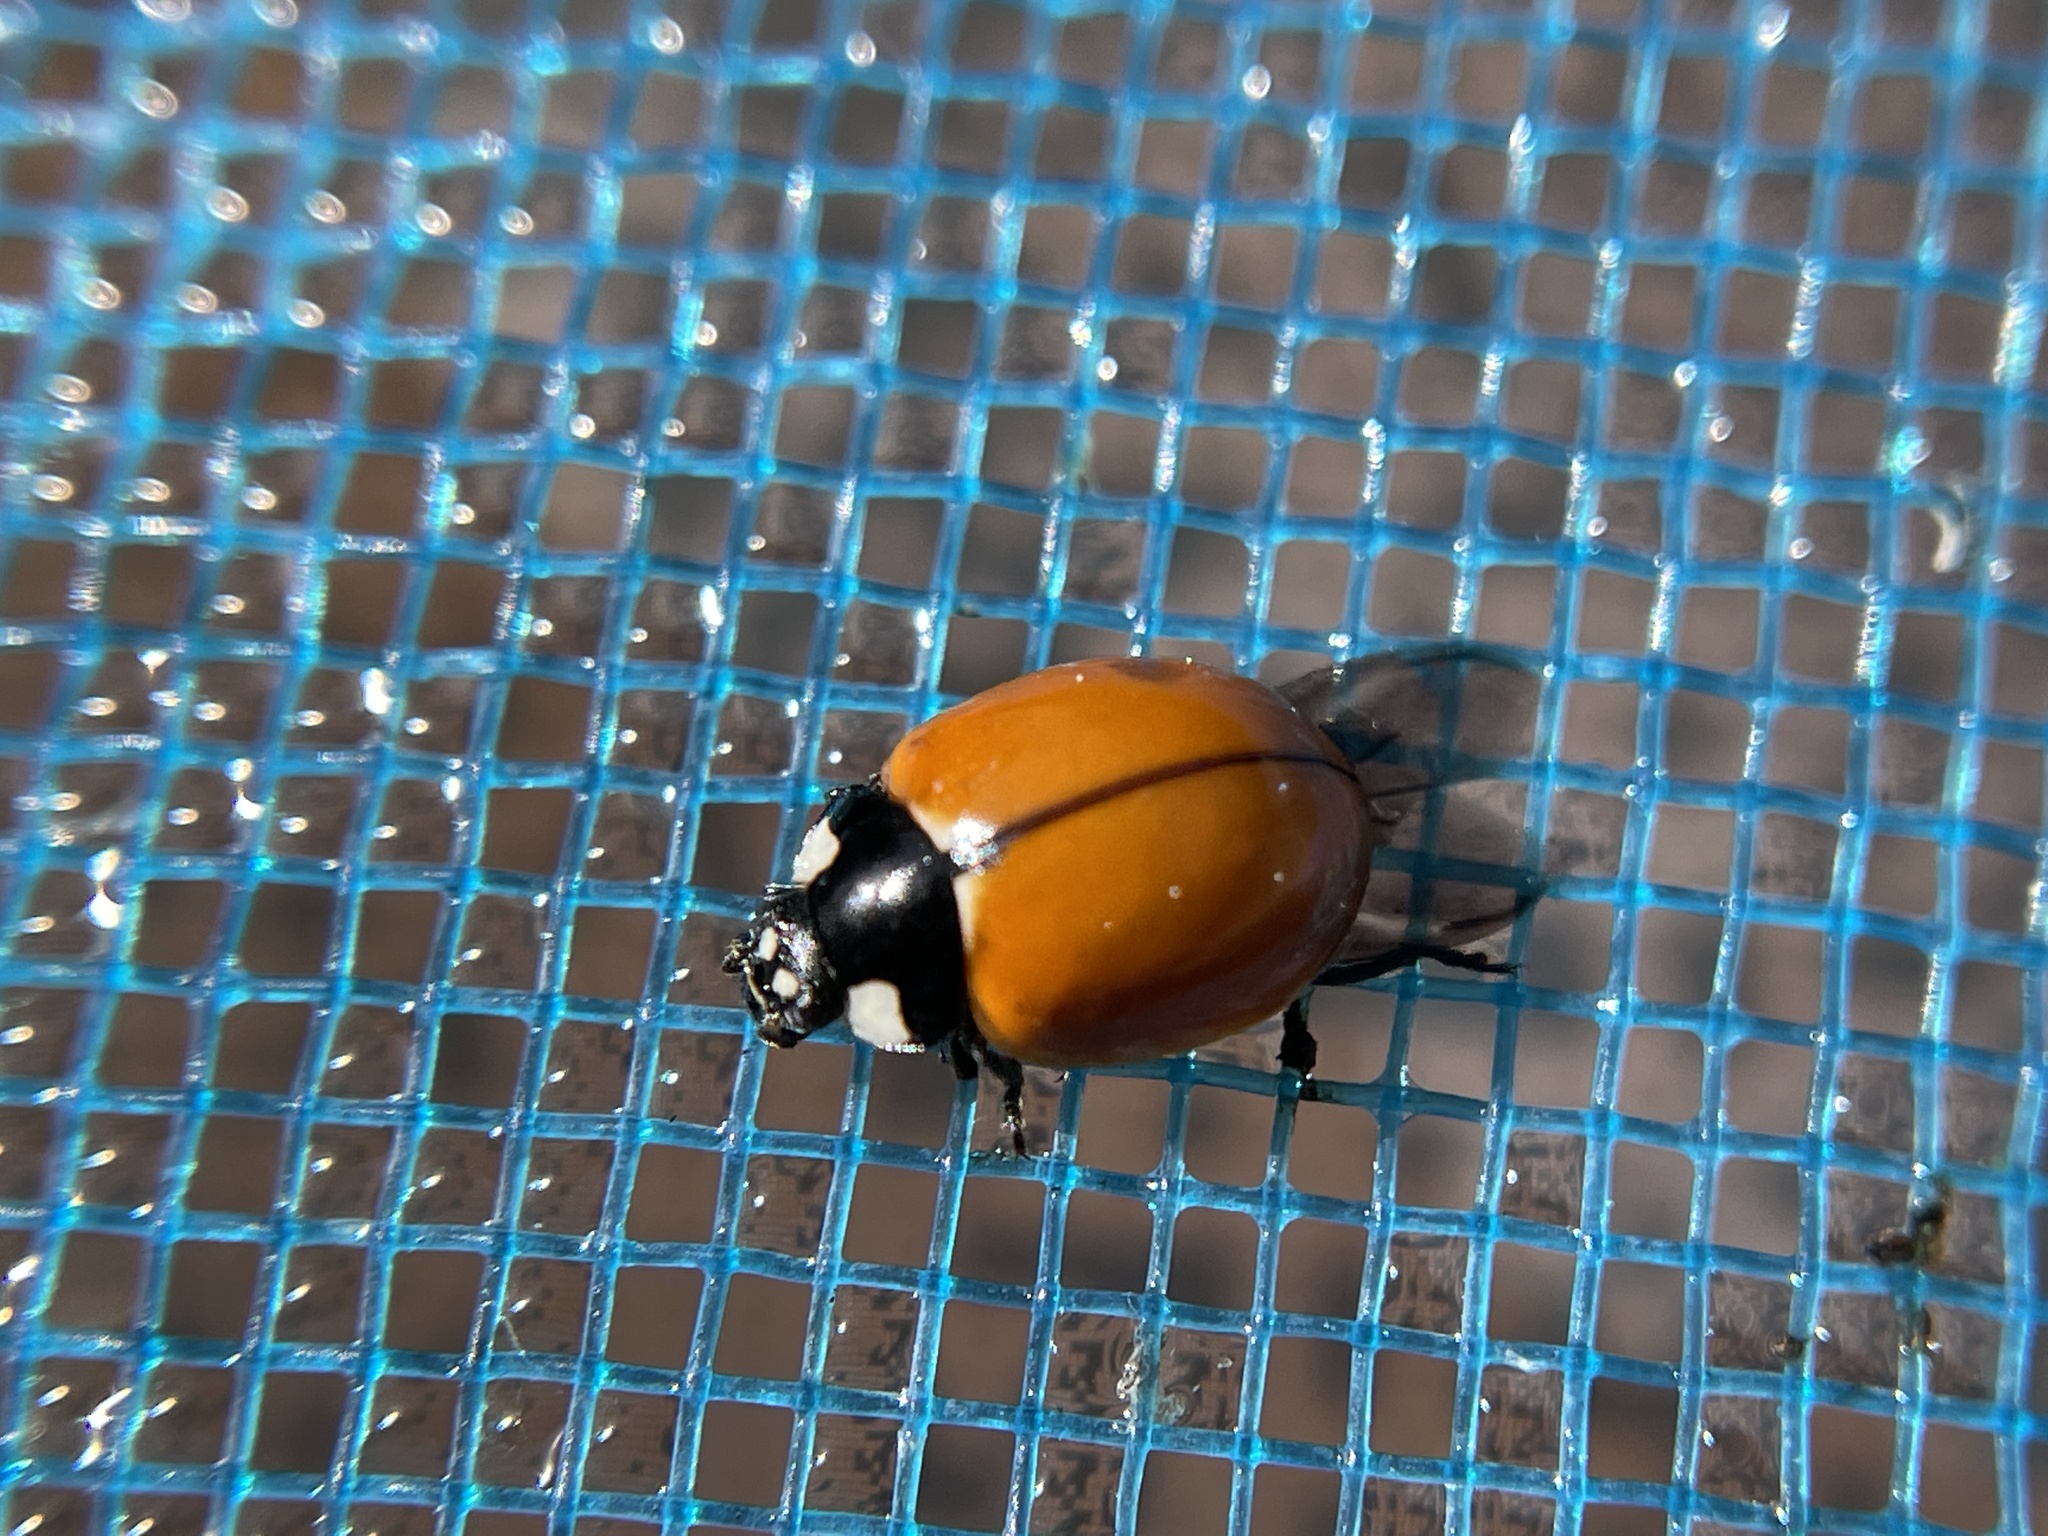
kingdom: Animalia
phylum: Arthropoda
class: Insecta
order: Coleoptera
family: Coccinellidae
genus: Coccinella
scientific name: Coccinella californica
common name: Lady beetle
